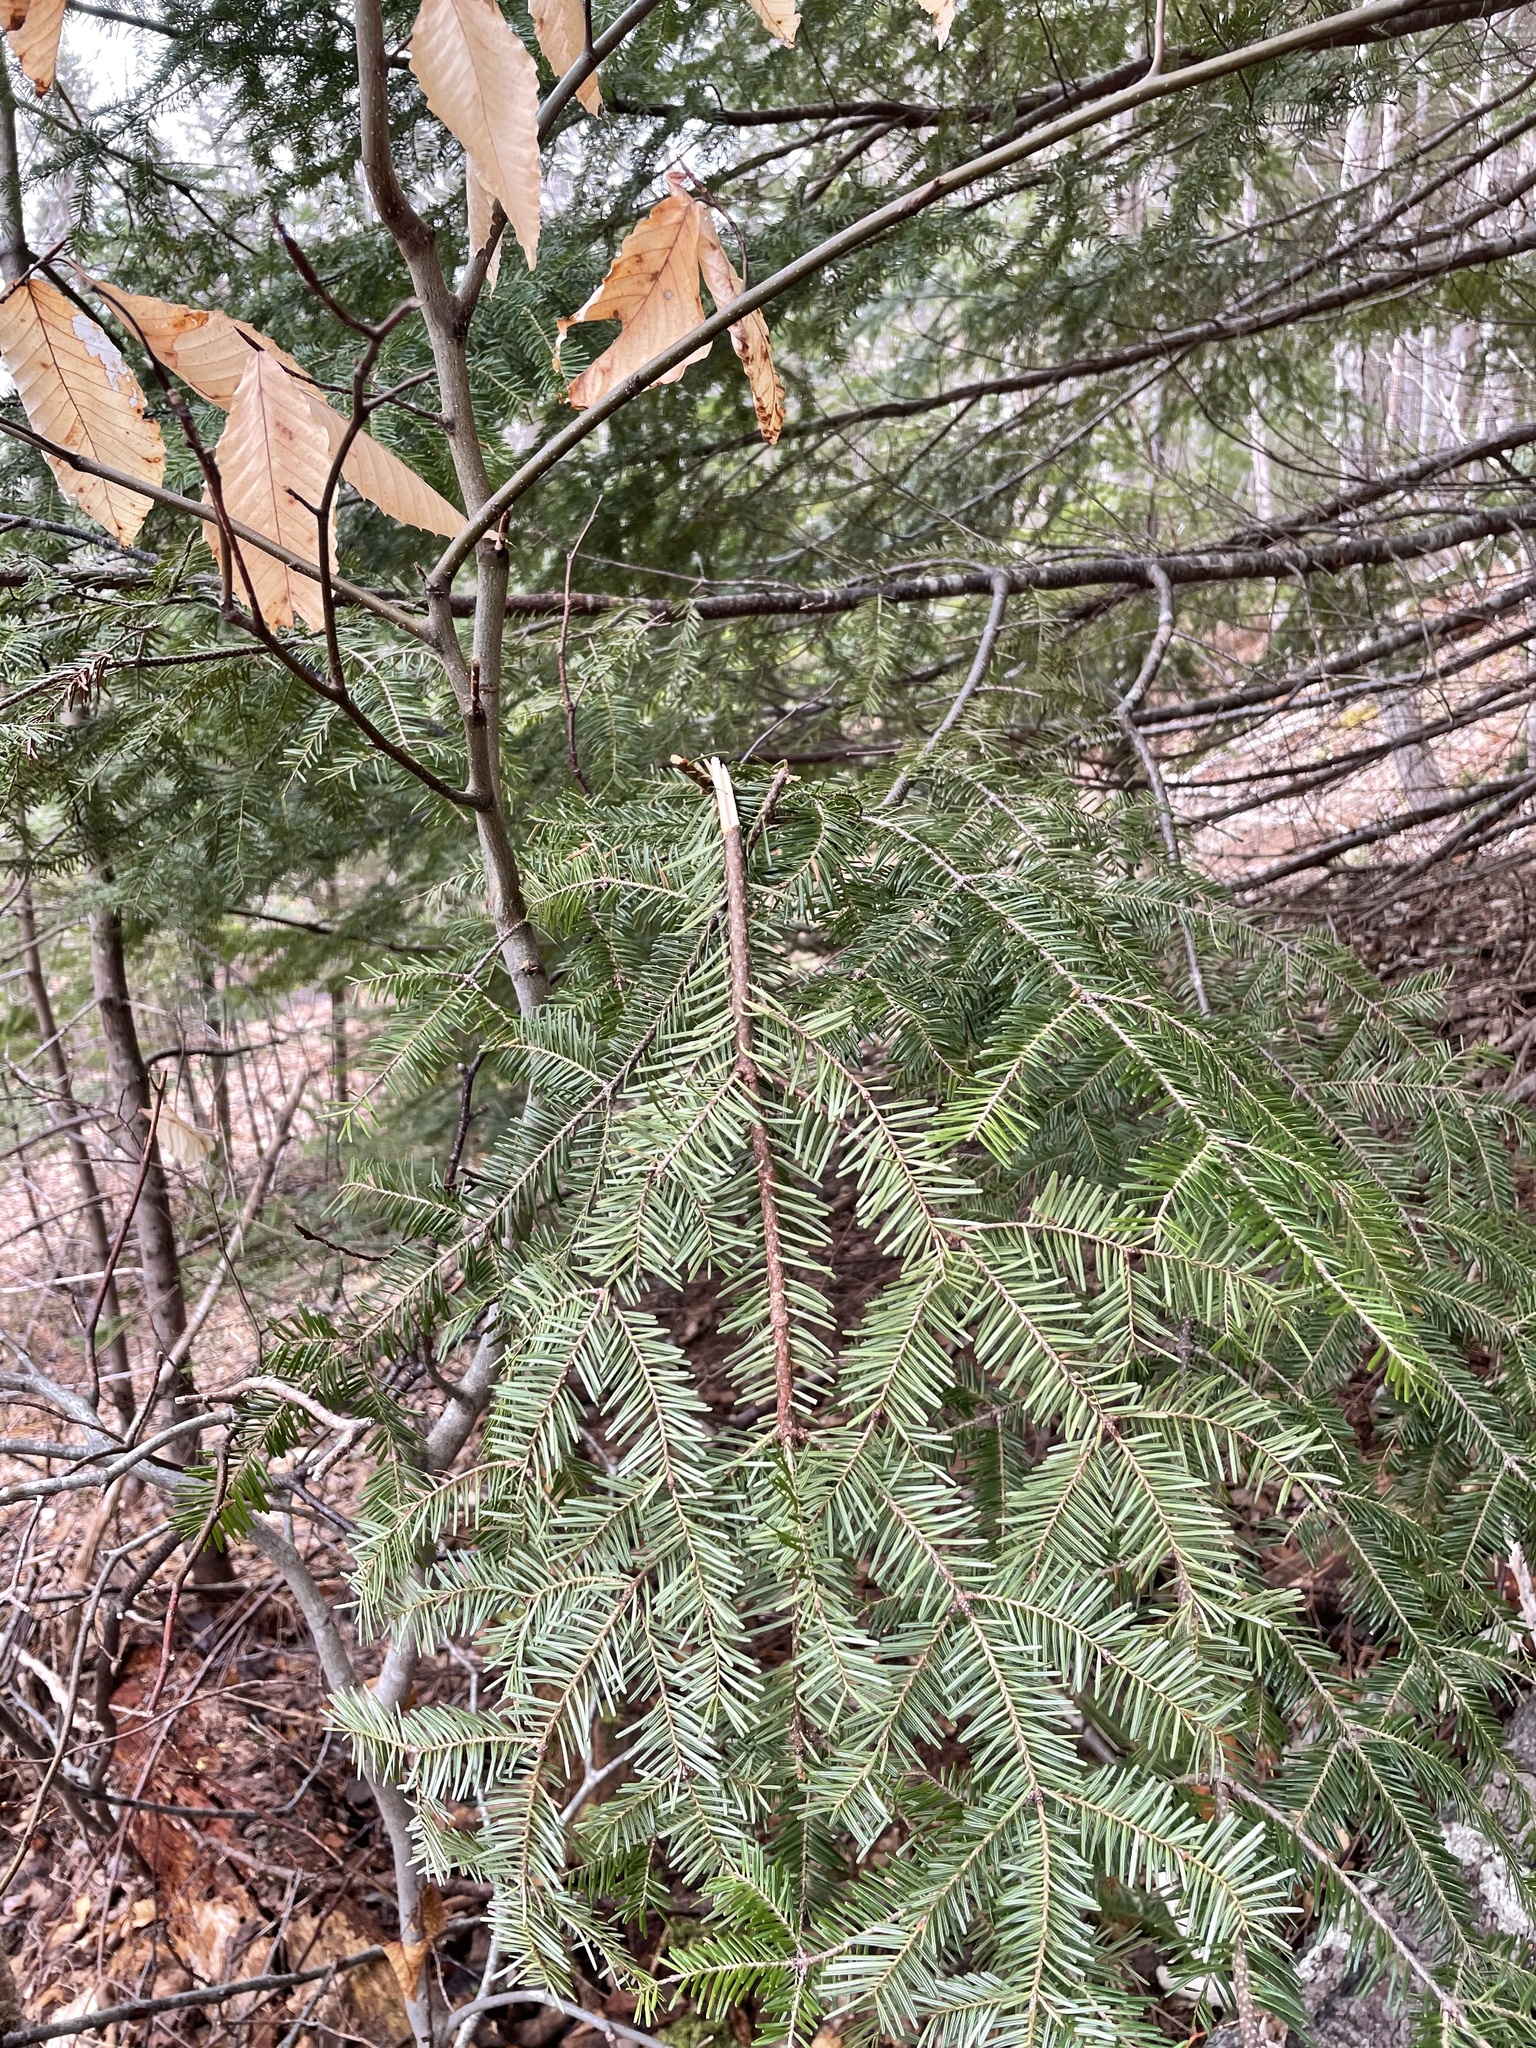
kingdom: Plantae
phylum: Tracheophyta
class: Pinopsida
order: Pinales
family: Pinaceae
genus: Abies
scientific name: Abies balsamea
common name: Balsam fir
